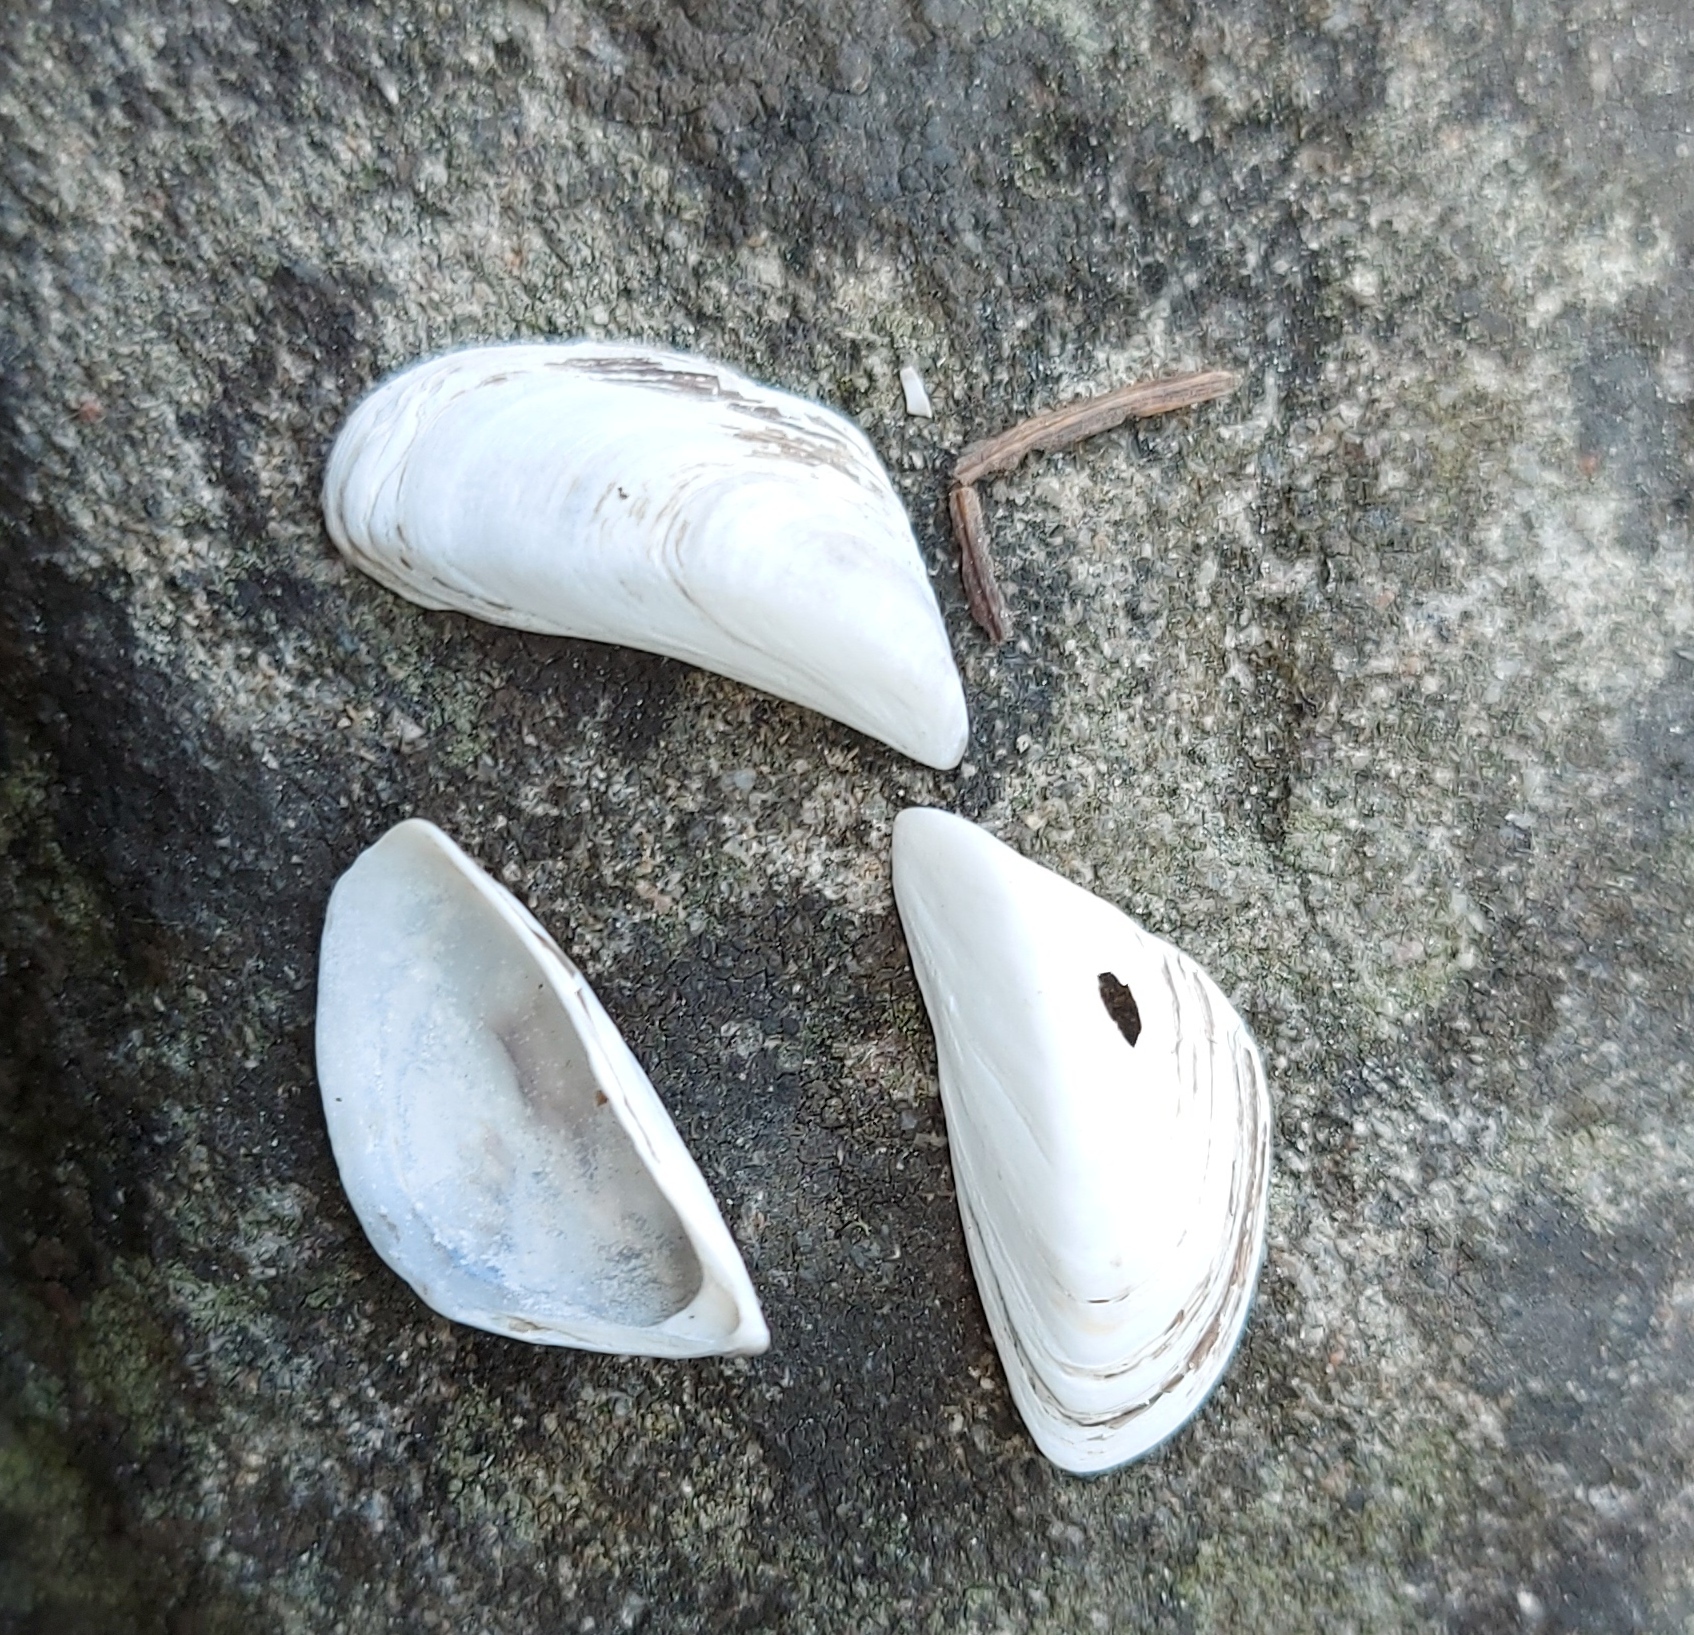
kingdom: Animalia
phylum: Mollusca
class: Bivalvia
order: Myida
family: Dreissenidae
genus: Dreissena
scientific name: Dreissena polymorpha
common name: Zebra mussel
